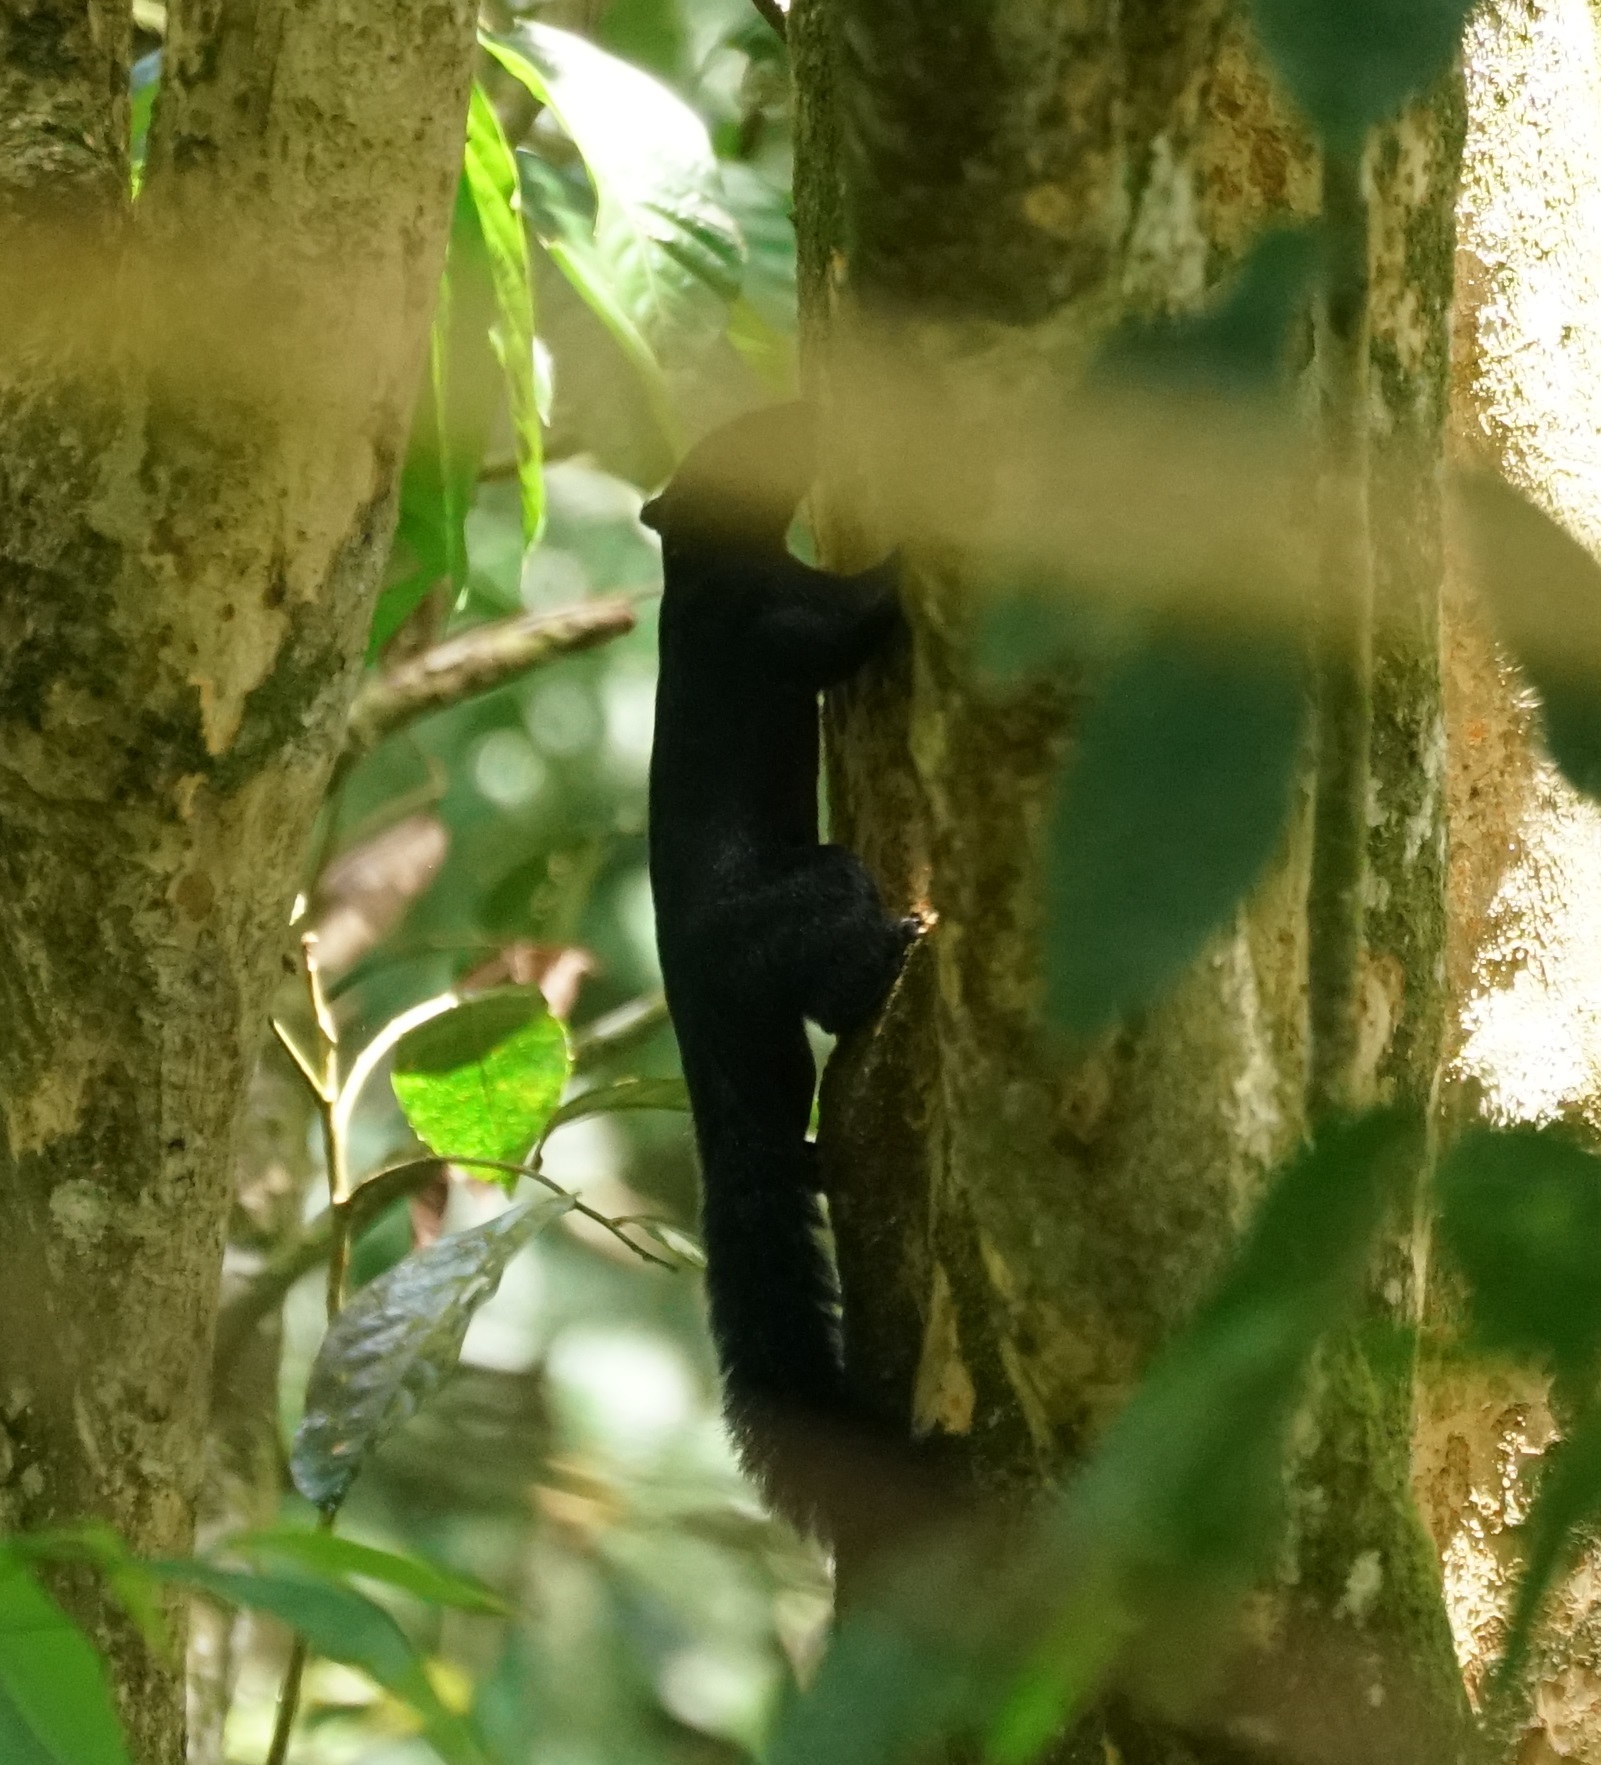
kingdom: Animalia
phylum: Chordata
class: Mammalia
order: Rodentia
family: Sciuridae
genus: Callosciurus
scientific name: Callosciurus prevostii
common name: Prevost's squirrel
